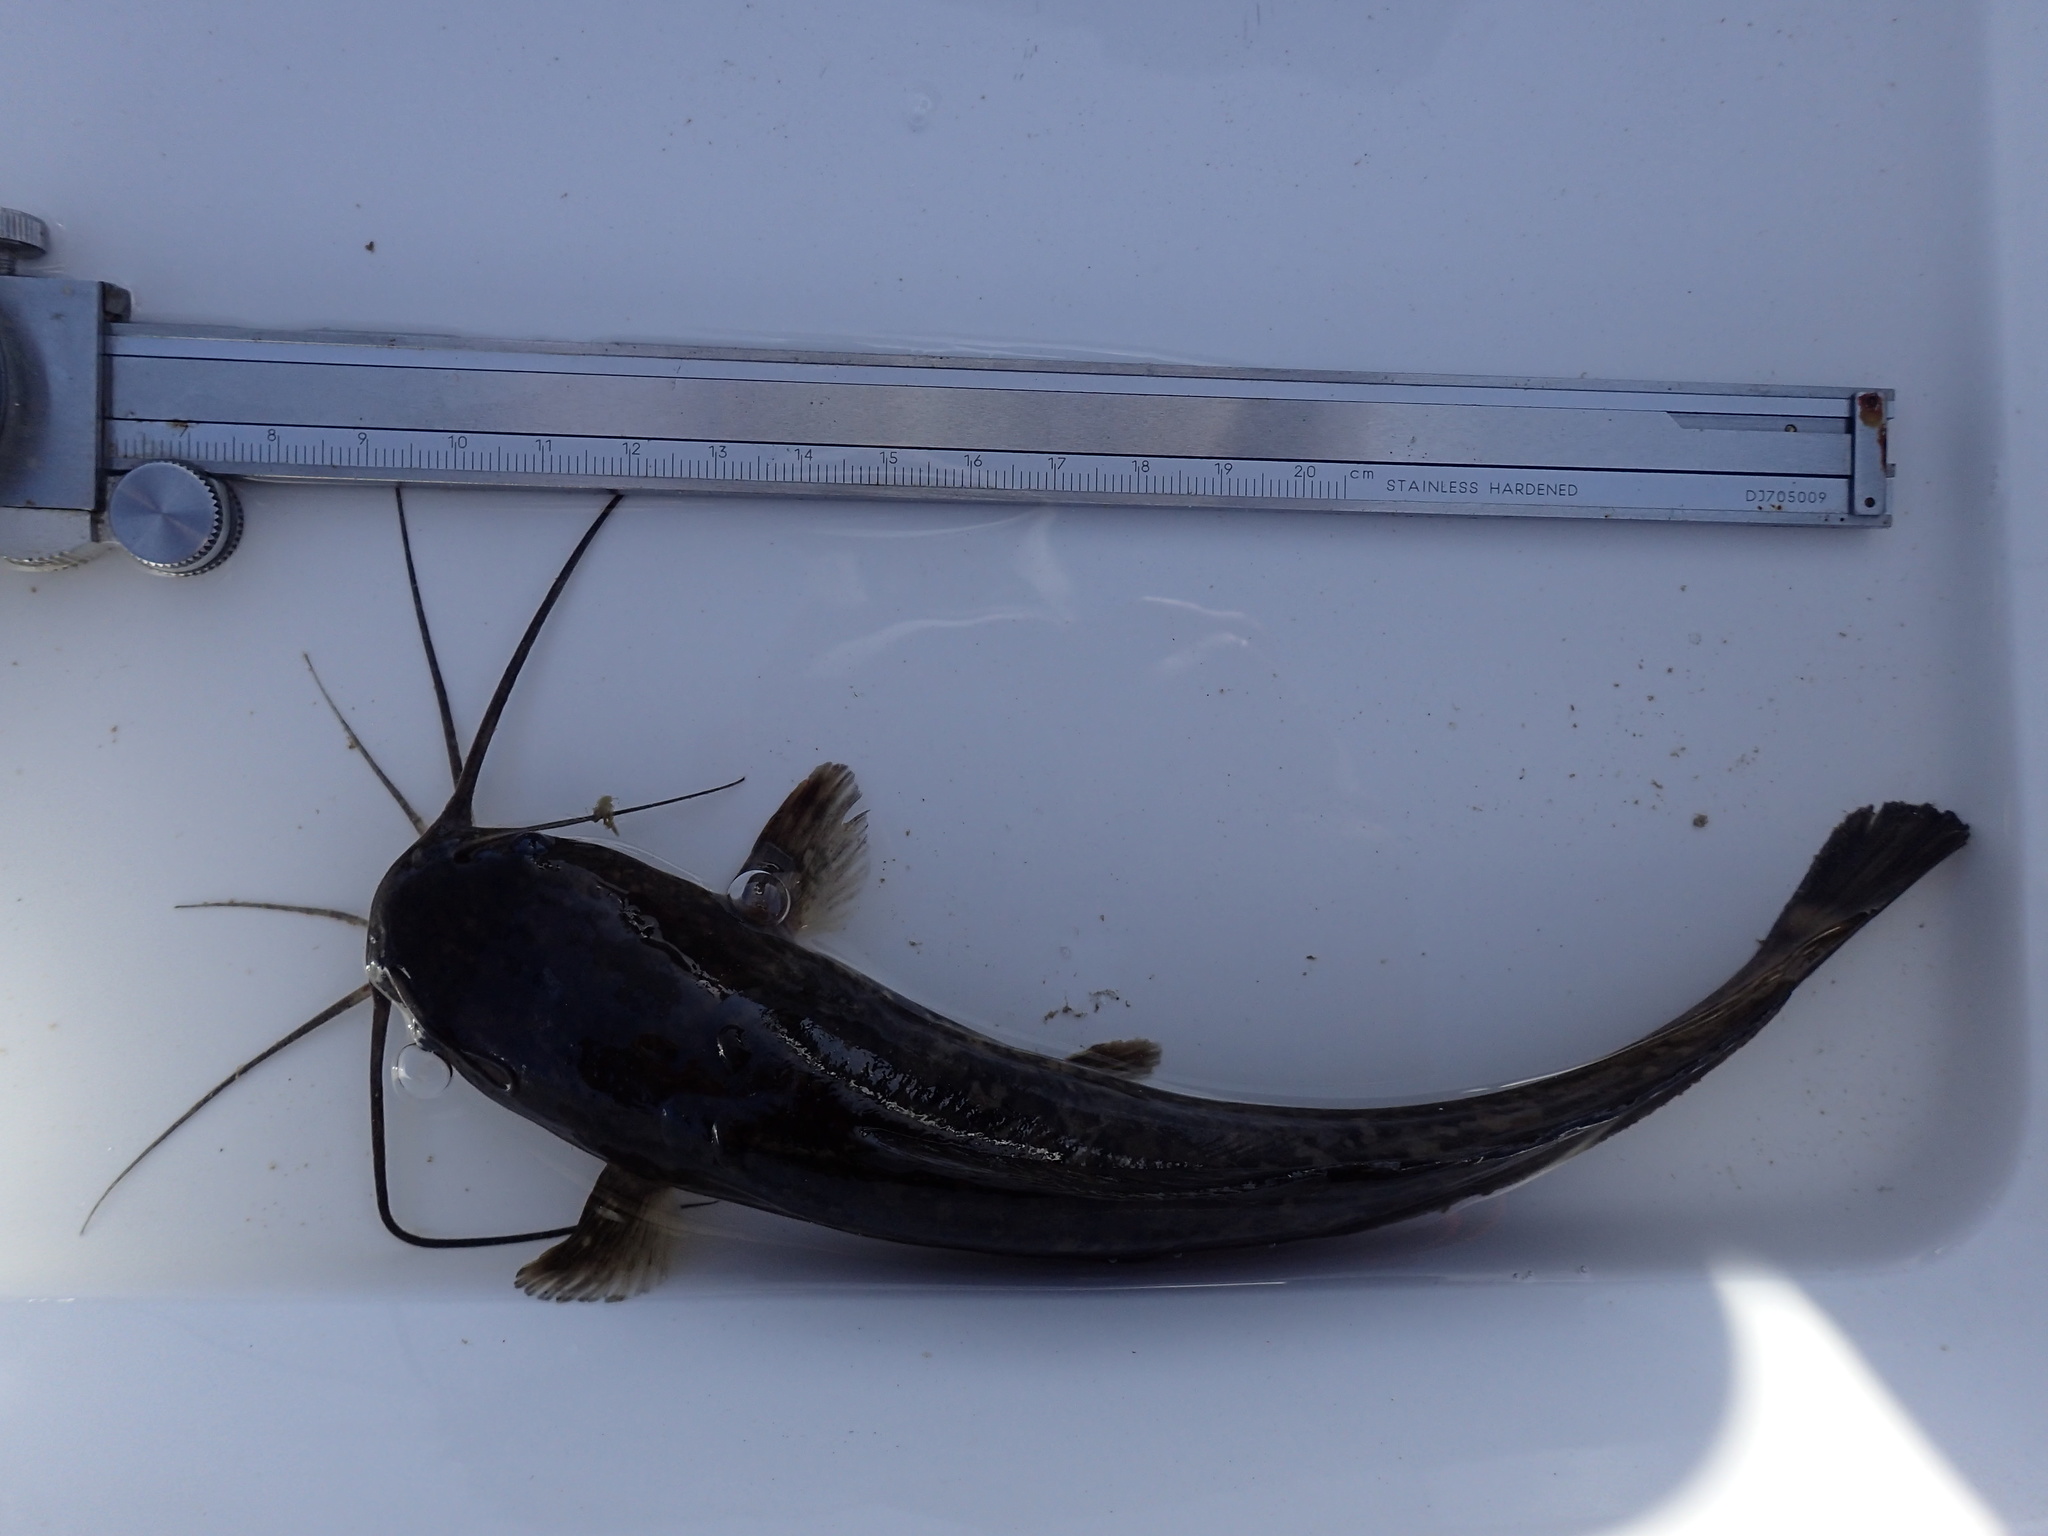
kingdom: Animalia
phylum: Chordata
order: Siluriformes
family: Clariidae
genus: Clarias
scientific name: Clarias gariepinus
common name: African catfish
